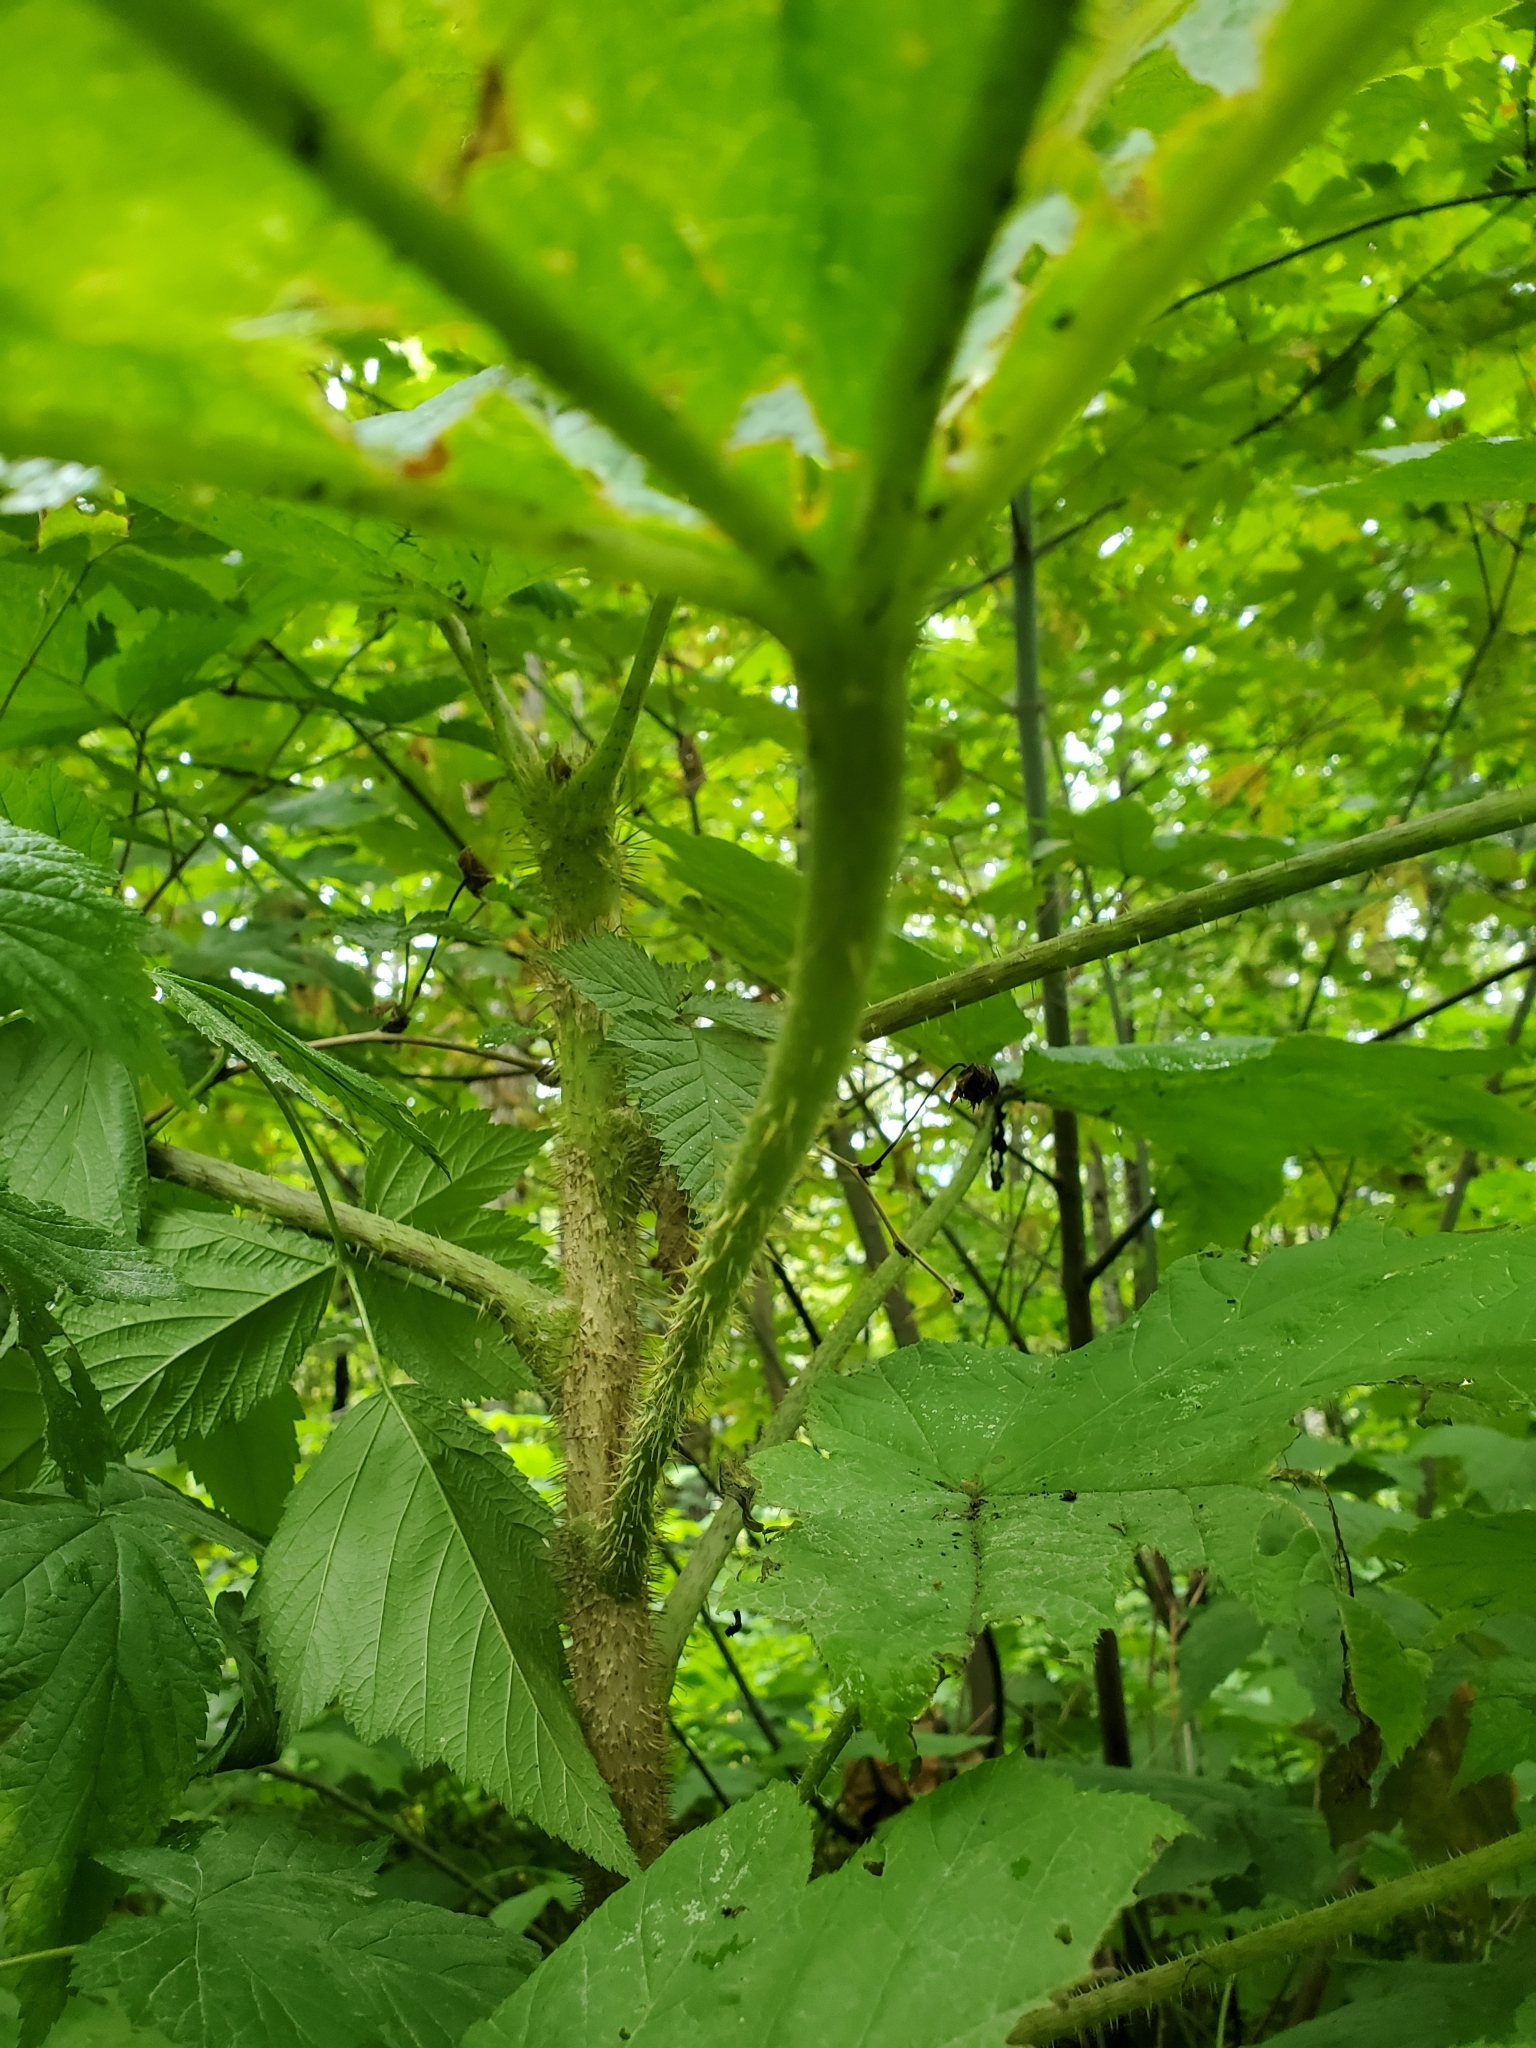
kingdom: Plantae
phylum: Tracheophyta
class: Magnoliopsida
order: Apiales
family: Araliaceae
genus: Oplopanax
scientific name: Oplopanax horridus
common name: Devil's walking-stick
